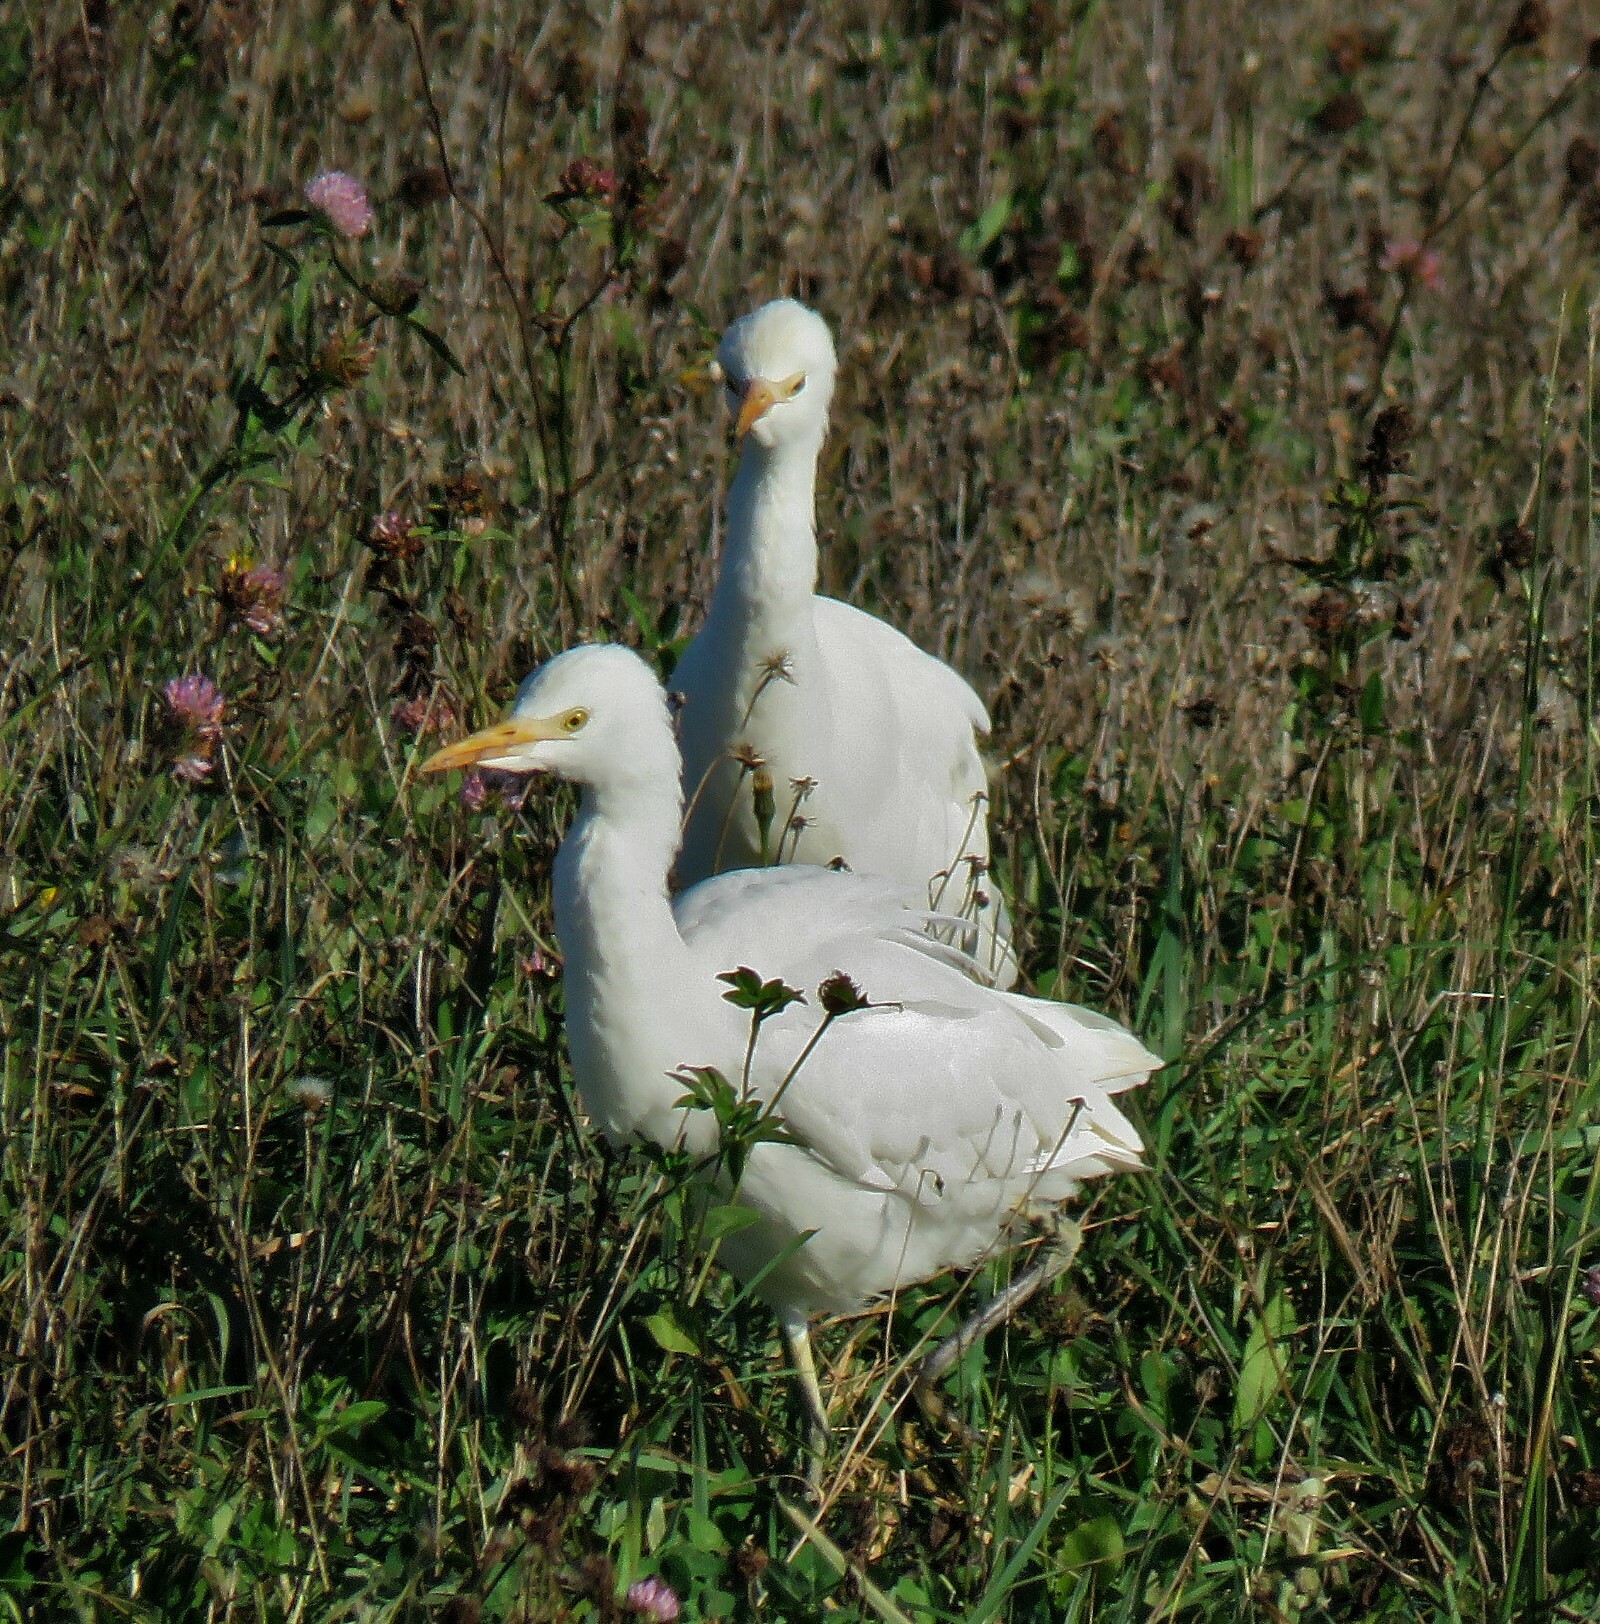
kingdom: Animalia
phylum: Chordata
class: Aves
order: Pelecaniformes
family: Ardeidae
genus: Bubulcus
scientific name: Bubulcus ibis
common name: Cattle egret
